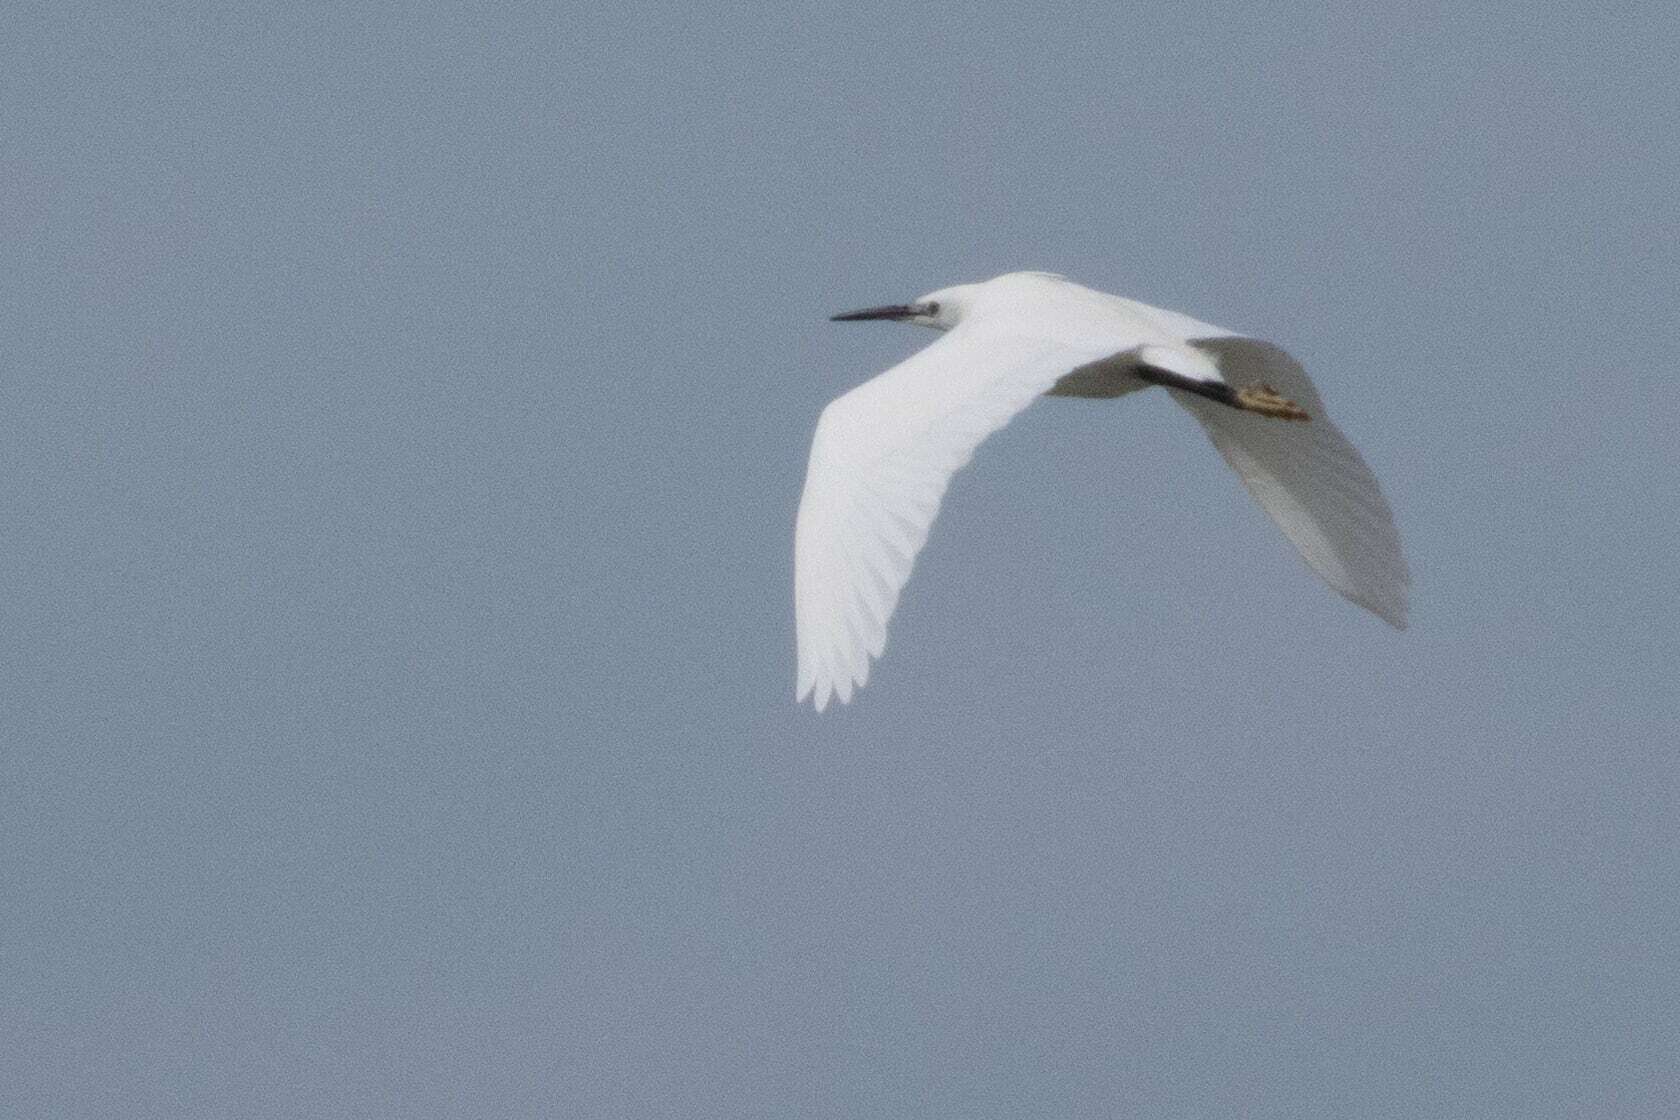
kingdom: Animalia
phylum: Chordata
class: Aves
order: Pelecaniformes
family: Ardeidae
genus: Egretta
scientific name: Egretta garzetta
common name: Little egret
